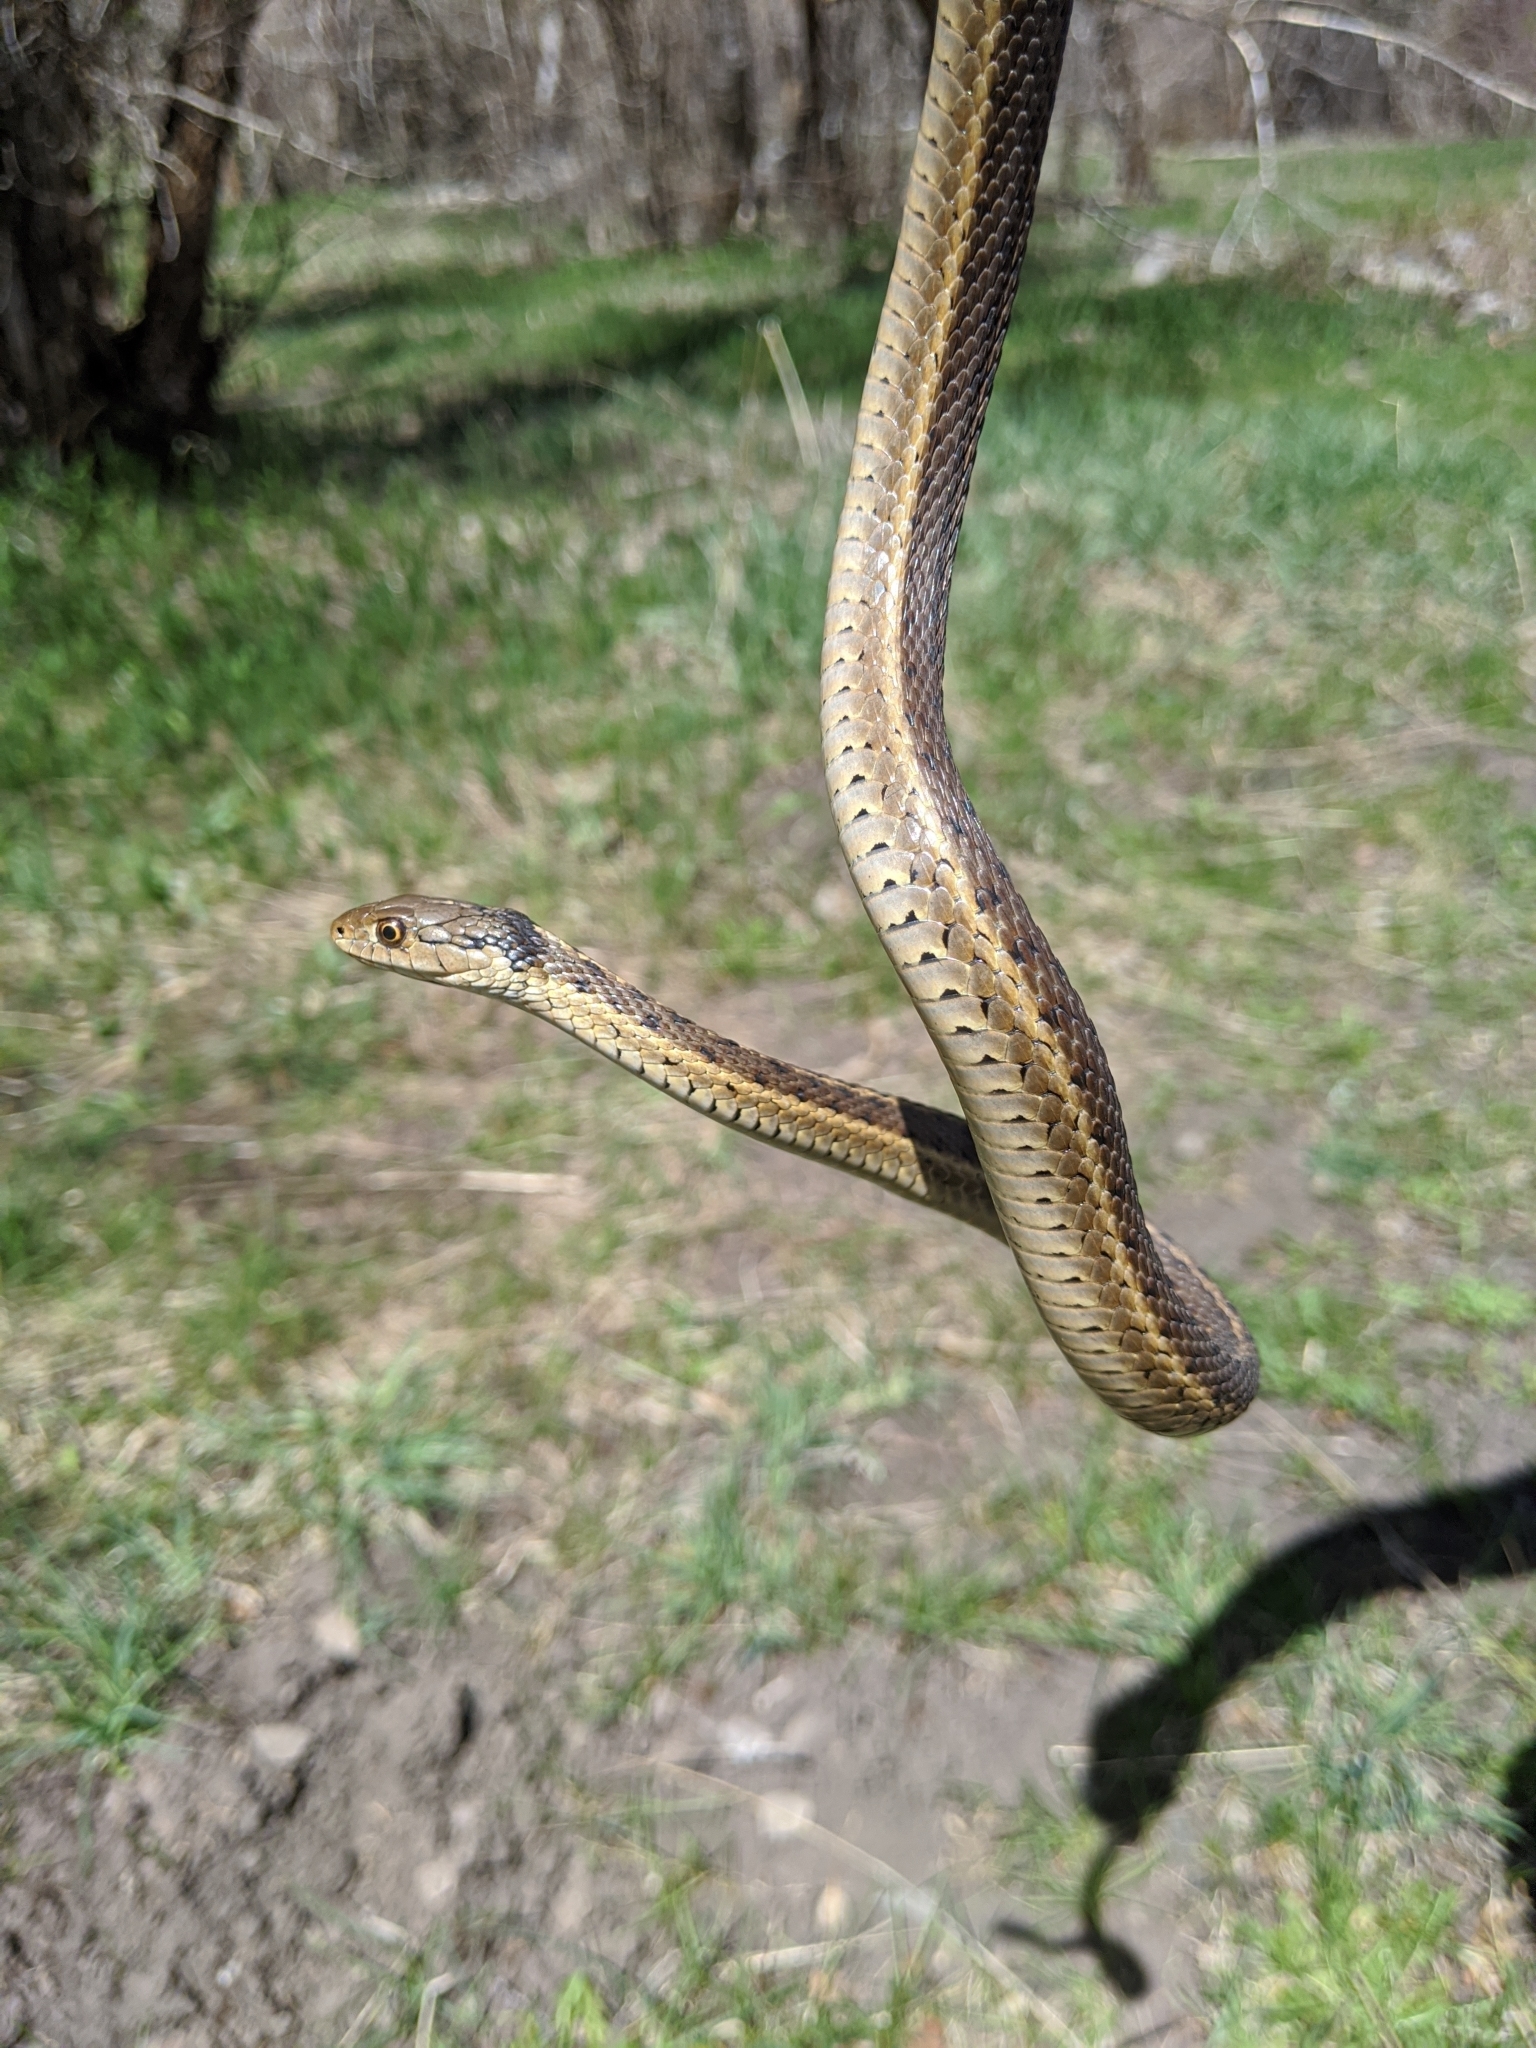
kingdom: Animalia
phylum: Chordata
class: Squamata
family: Colubridae
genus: Thamnophis
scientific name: Thamnophis elegans
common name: Western terrestrial garter snake
